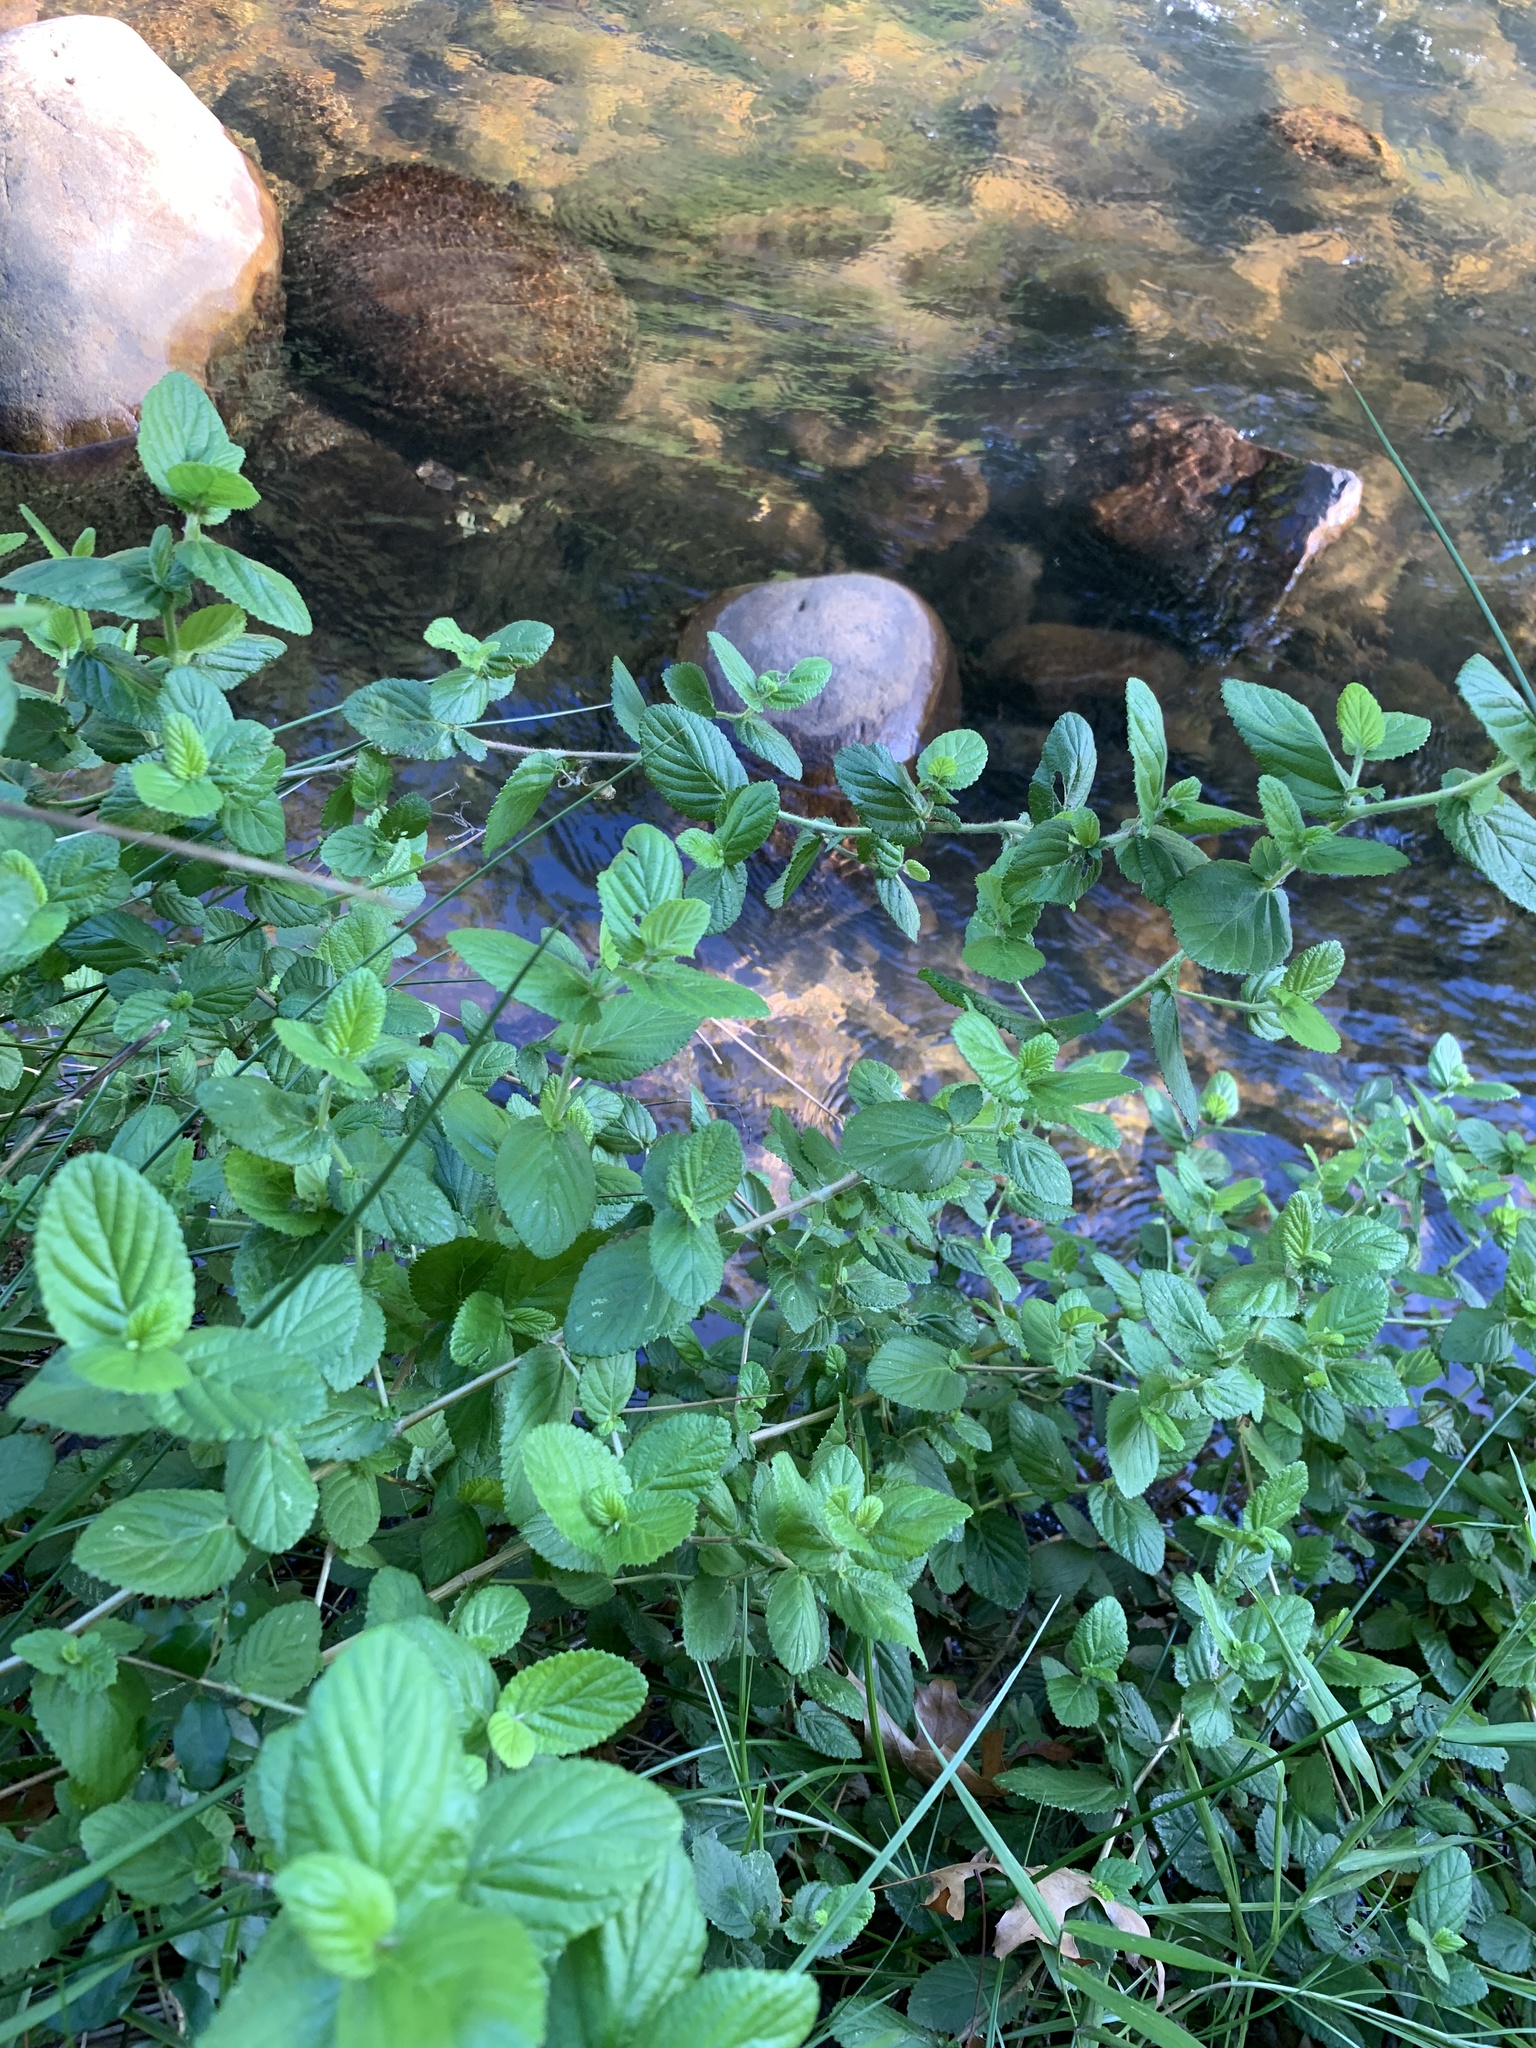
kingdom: Plantae
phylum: Tracheophyta
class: Magnoliopsida
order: Rosales
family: Rosaceae
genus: Cliffortia
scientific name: Cliffortia odorata
